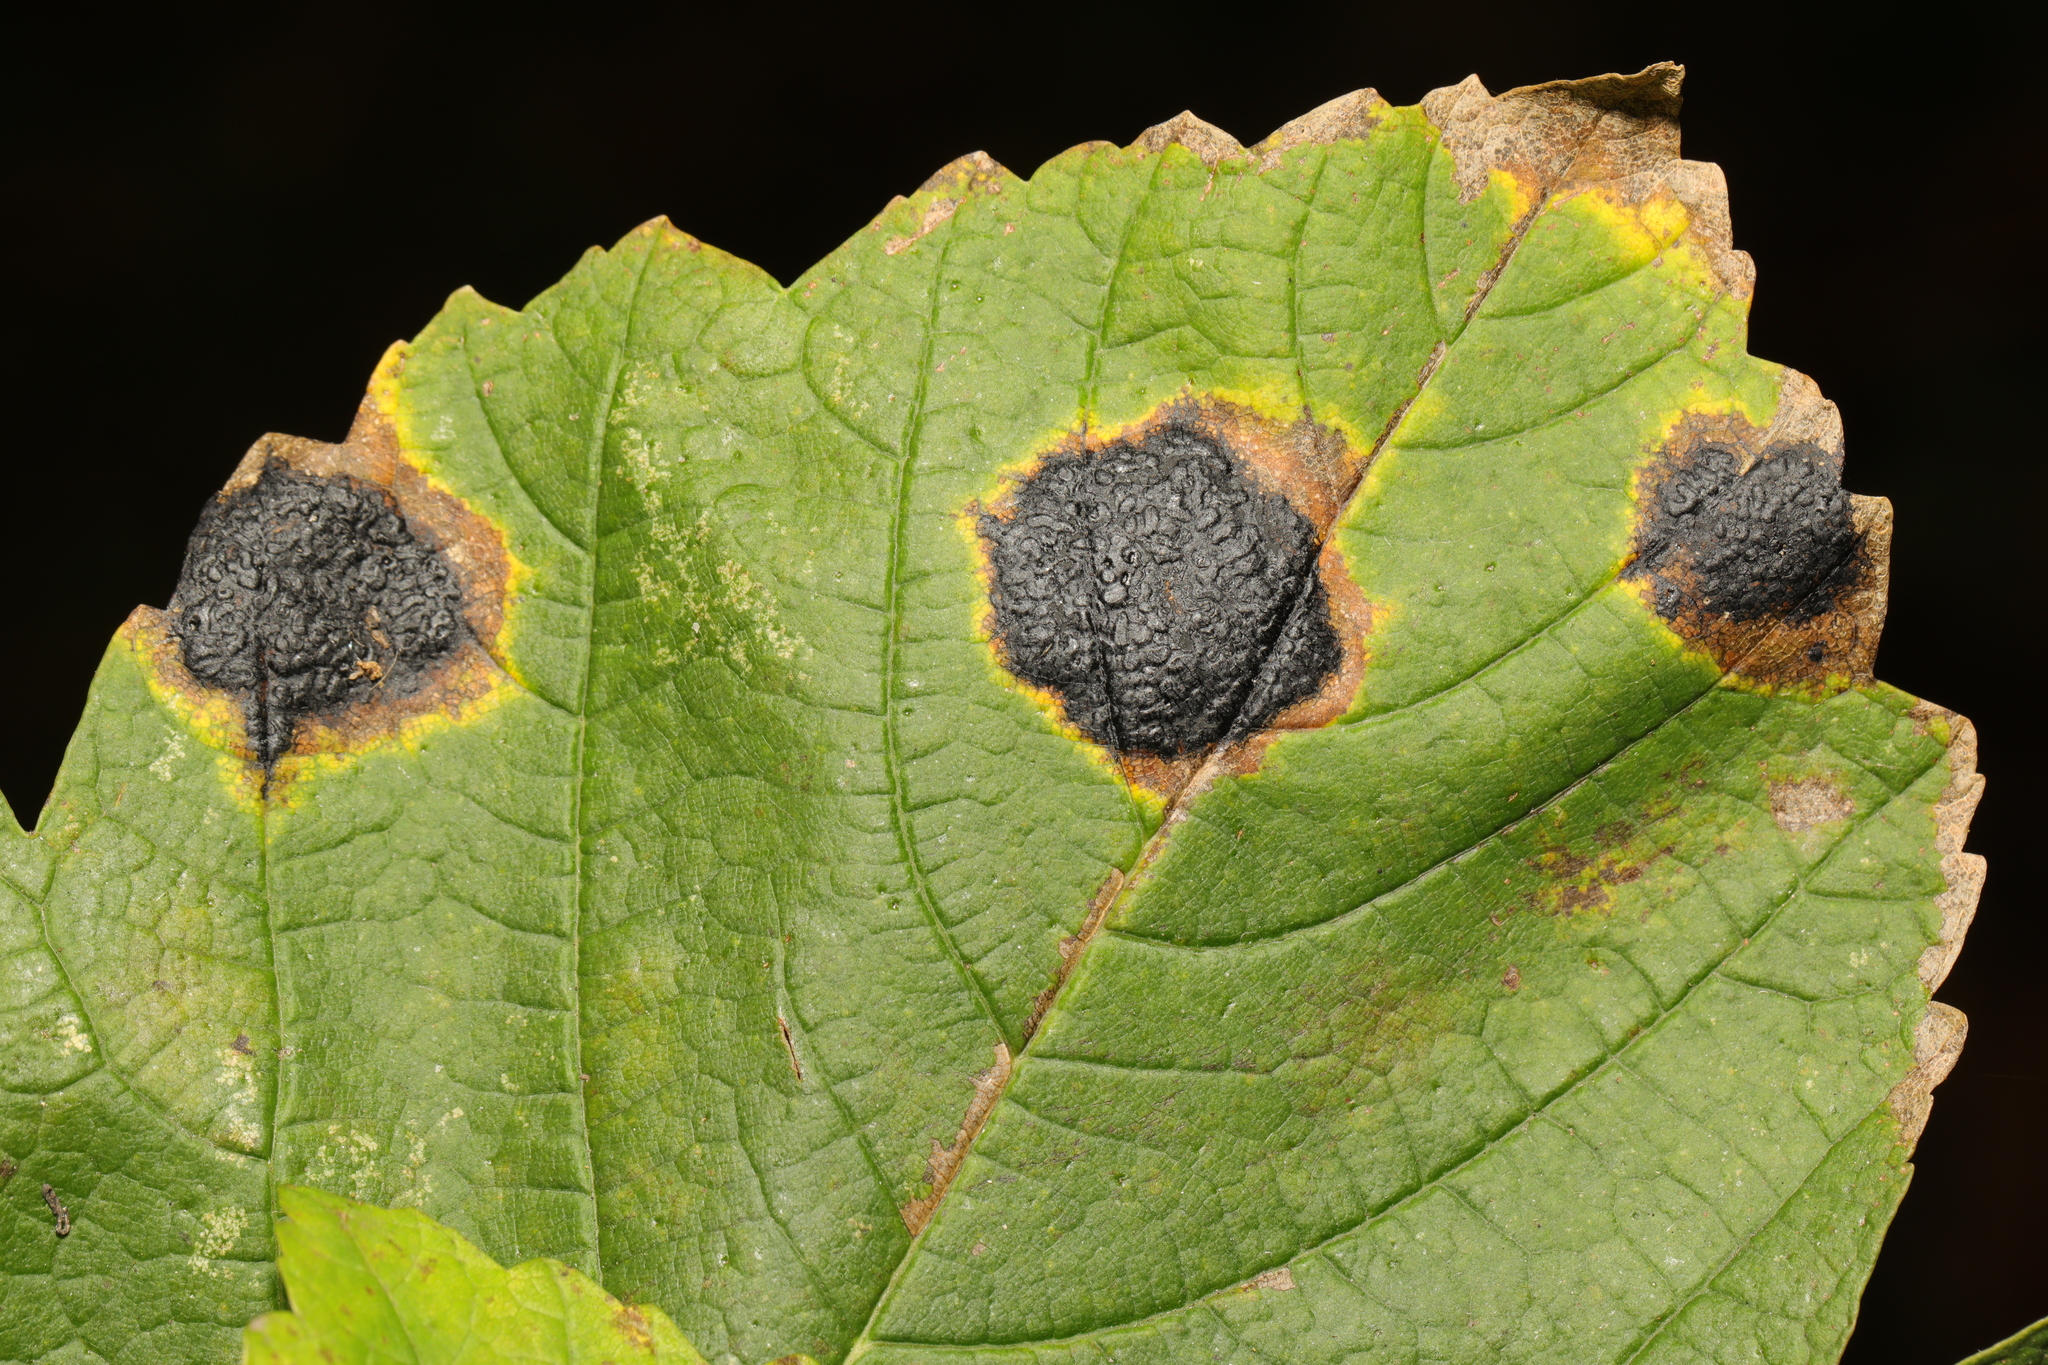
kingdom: Fungi
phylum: Ascomycota
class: Leotiomycetes
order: Rhytismatales
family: Rhytismataceae
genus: Rhytisma
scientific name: Rhytisma acerinum
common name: European tar spot
